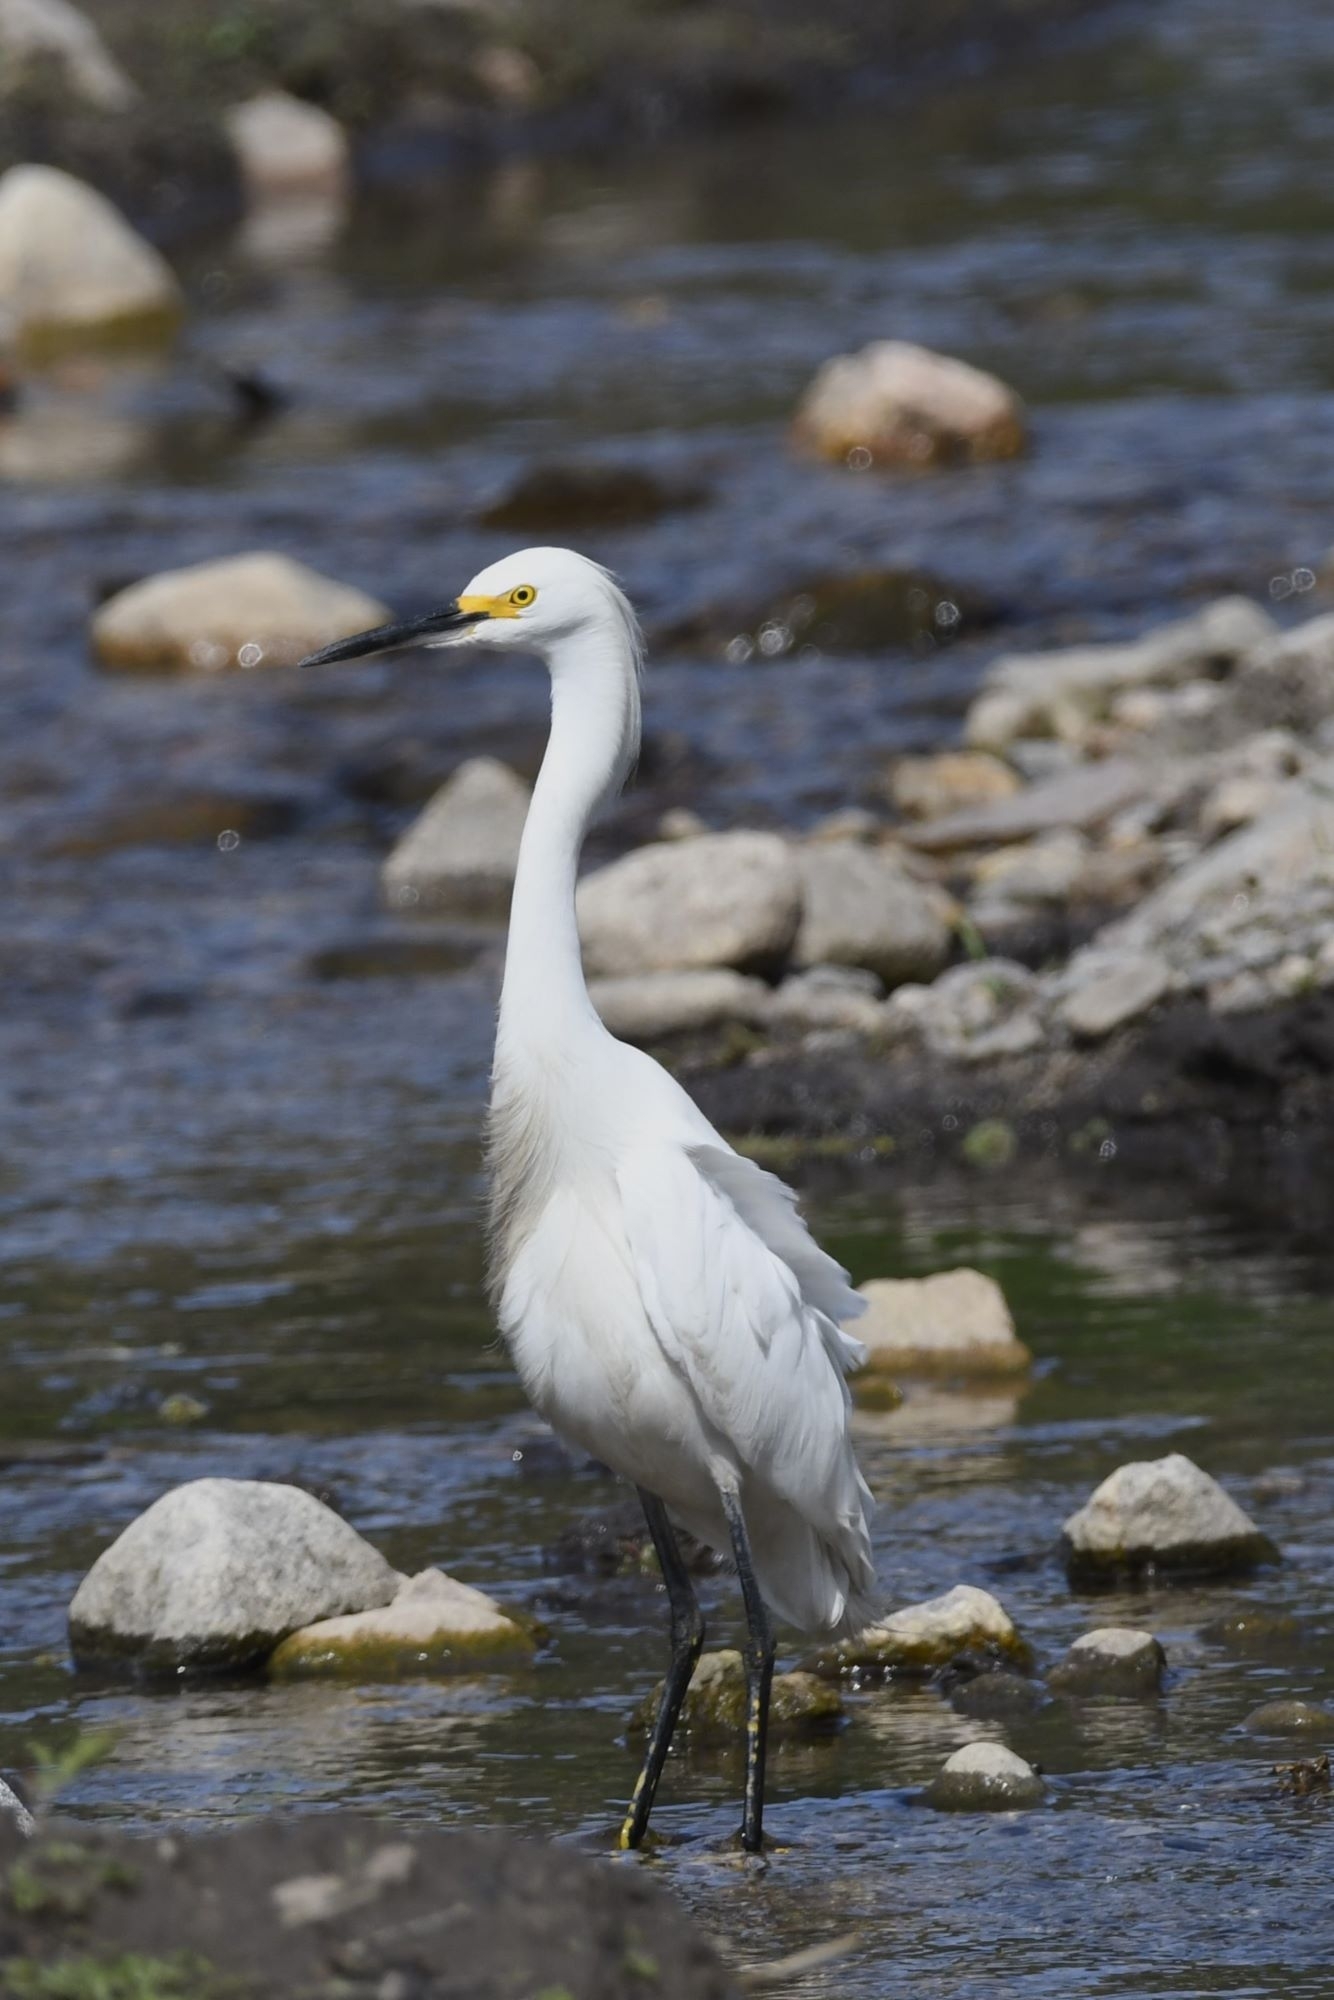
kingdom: Animalia
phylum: Chordata
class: Aves
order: Pelecaniformes
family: Ardeidae
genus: Egretta
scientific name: Egretta thula
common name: Snowy egret
